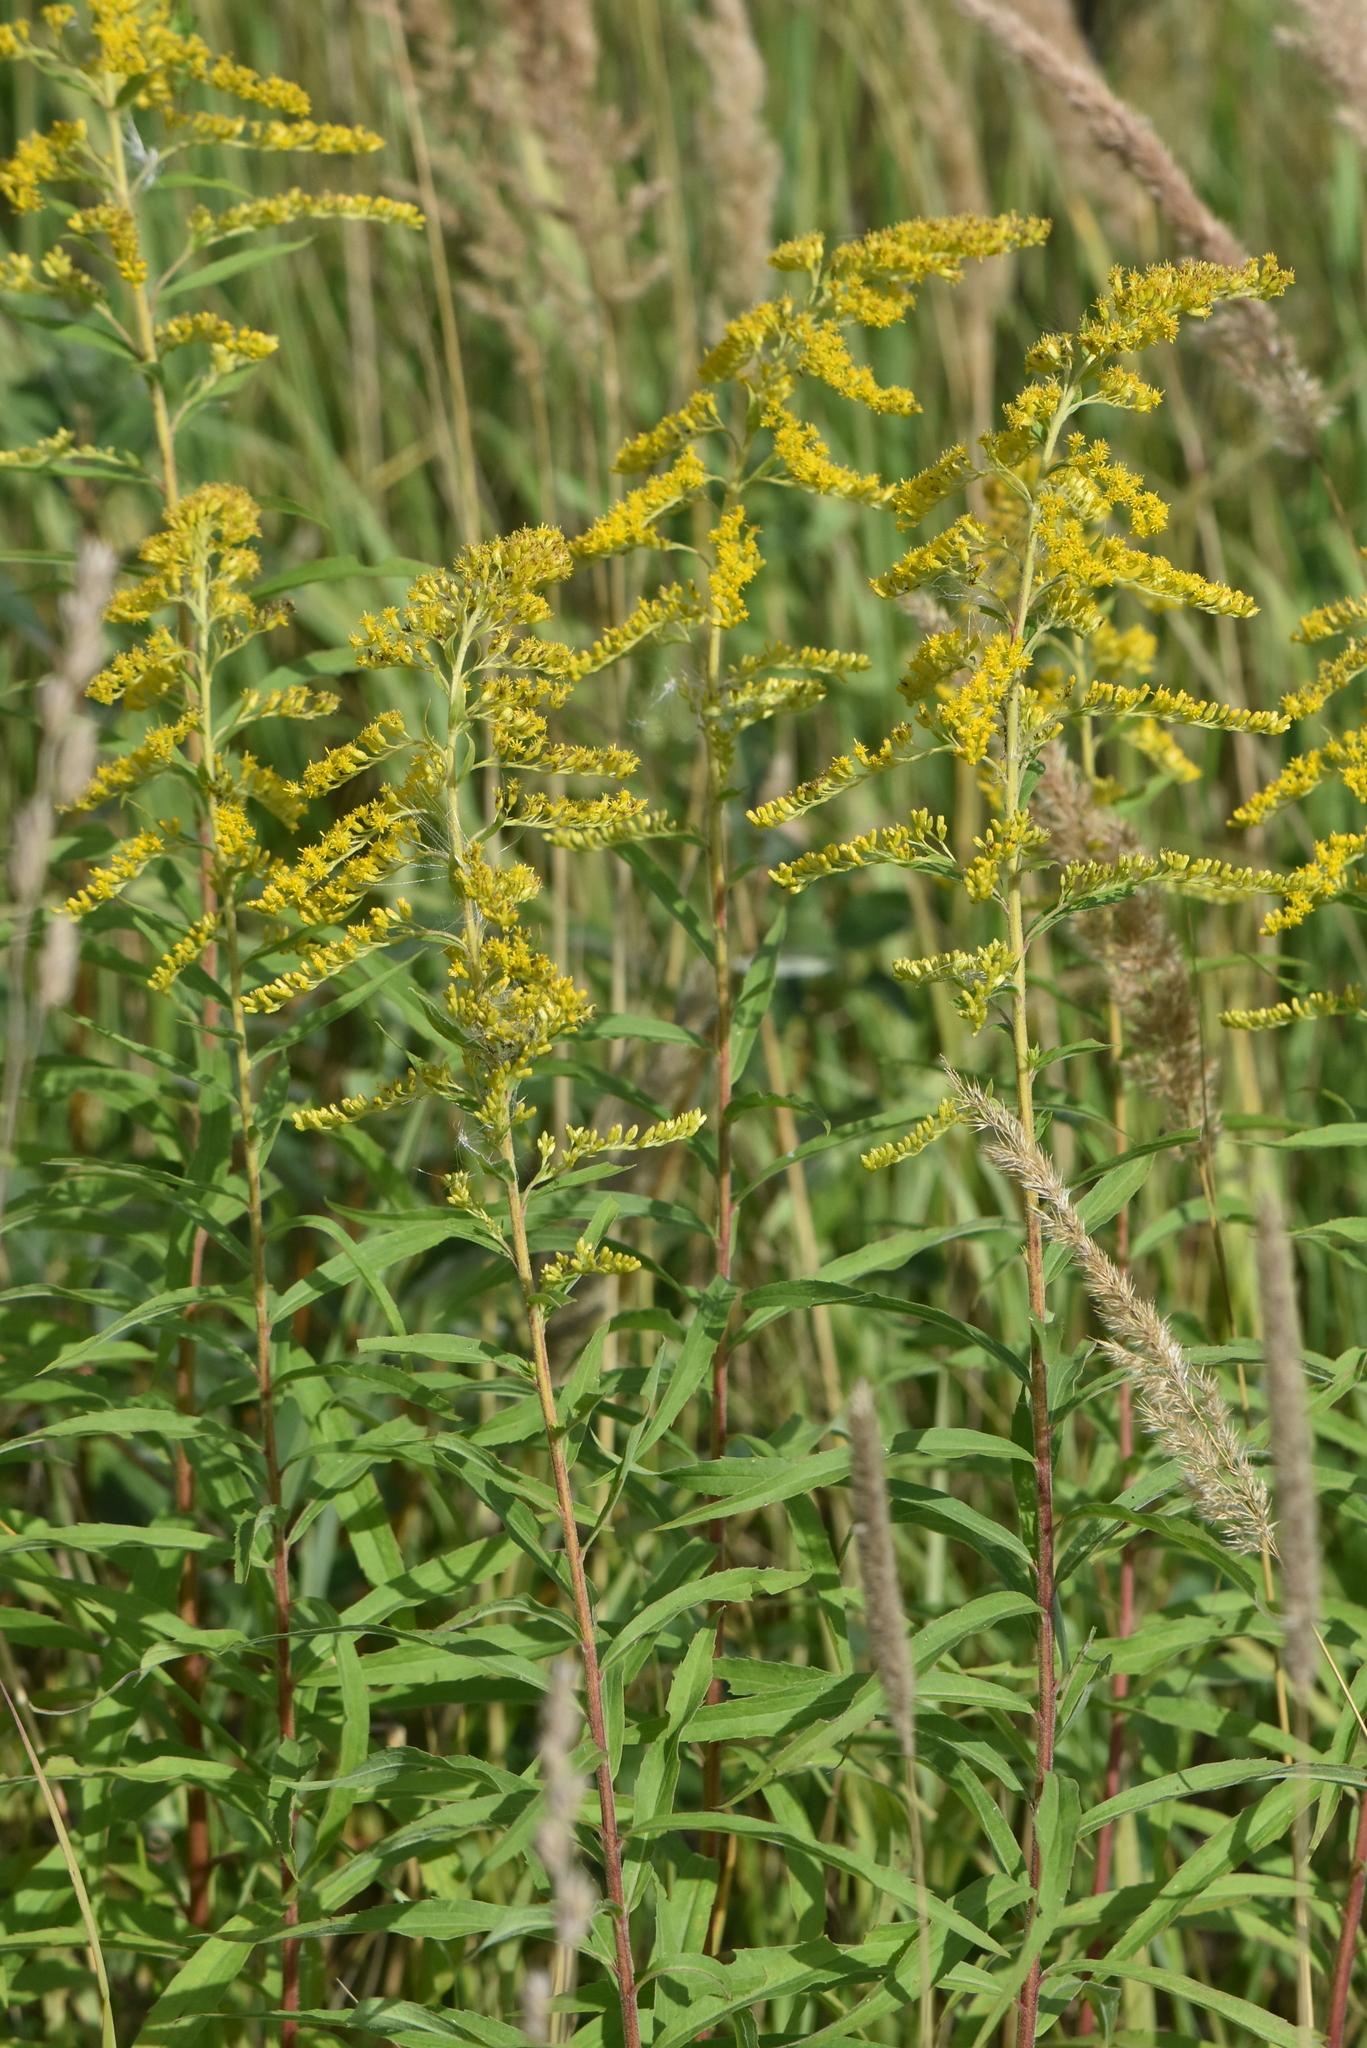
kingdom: Plantae
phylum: Tracheophyta
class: Magnoliopsida
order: Asterales
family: Asteraceae
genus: Solidago
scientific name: Solidago canadensis
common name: Canada goldenrod
